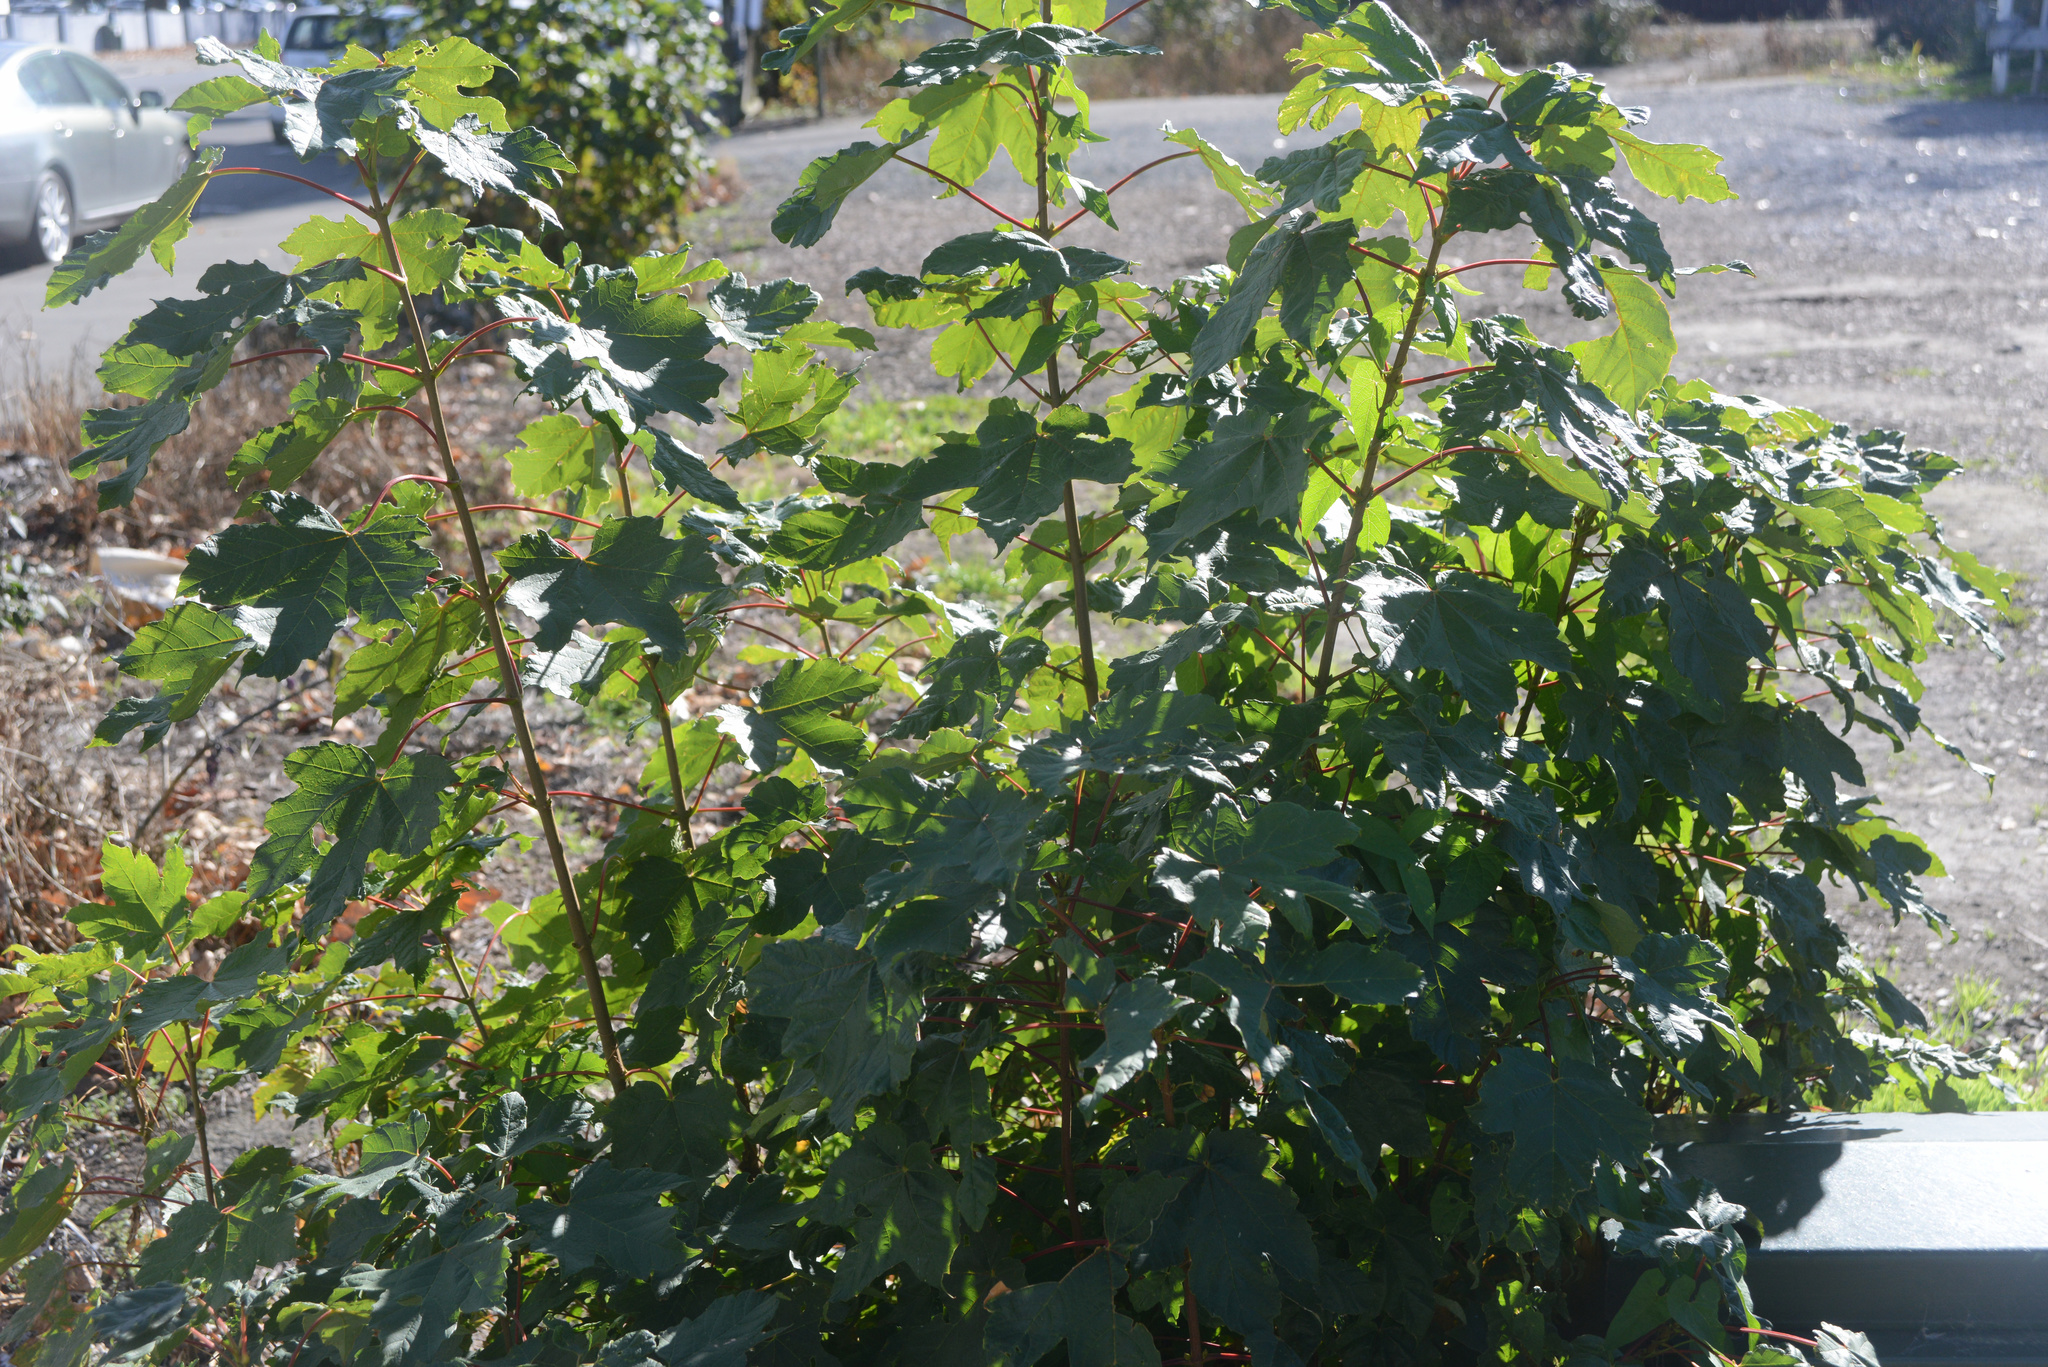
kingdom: Plantae
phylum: Tracheophyta
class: Magnoliopsida
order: Sapindales
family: Sapindaceae
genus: Acer
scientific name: Acer pseudoplatanus
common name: Sycamore
